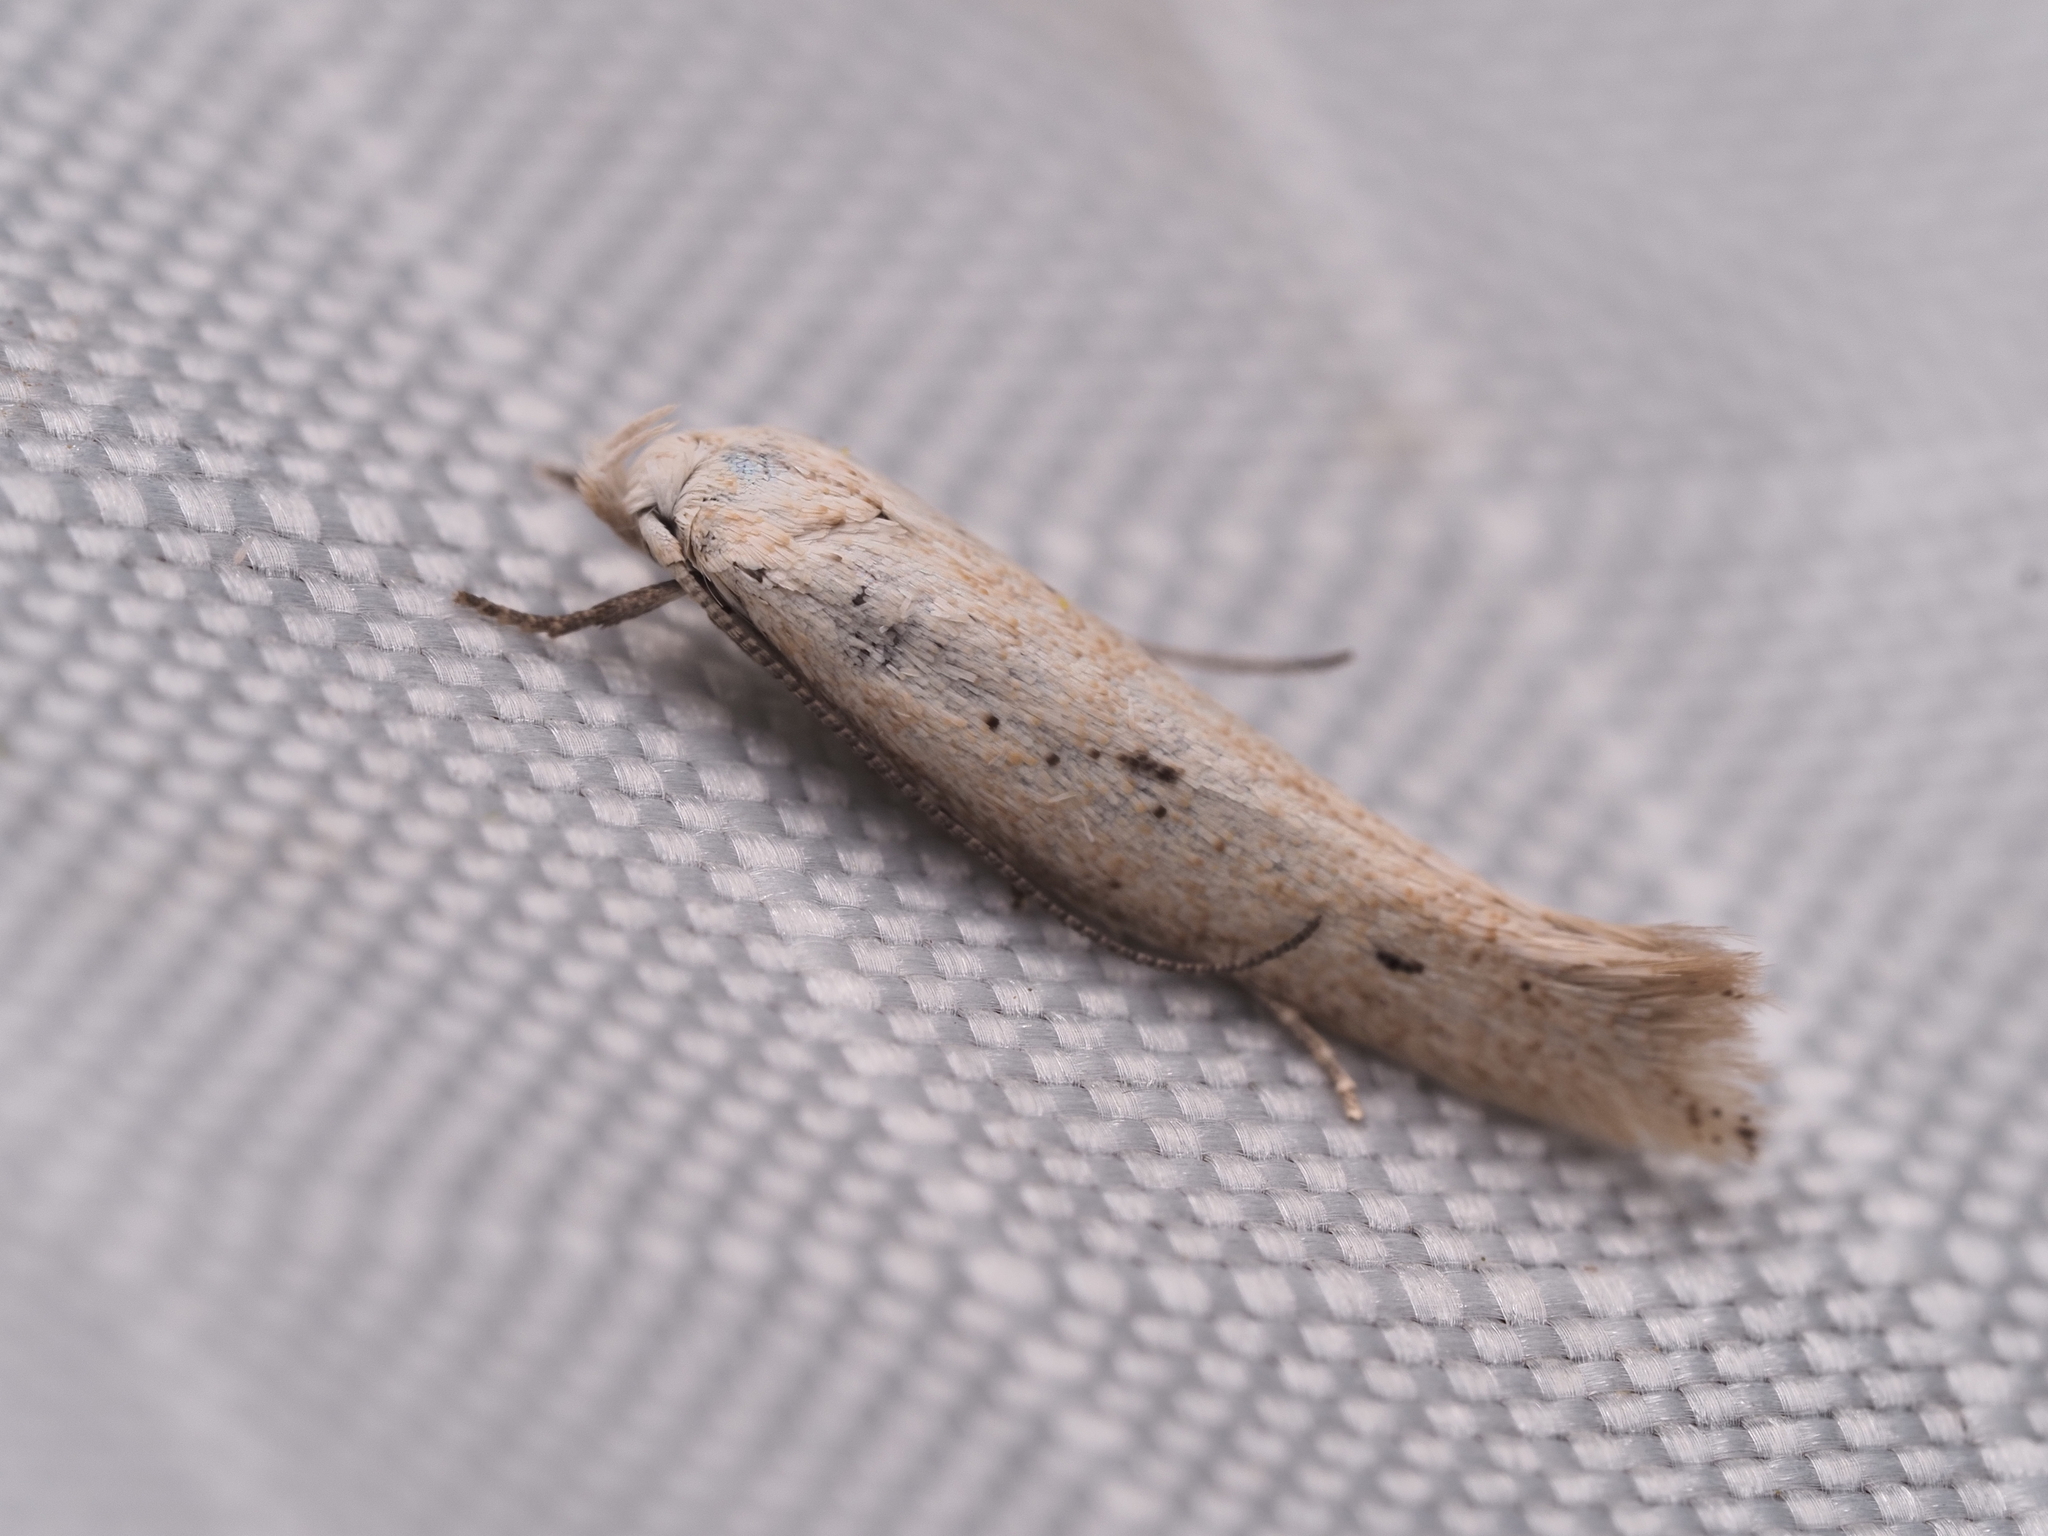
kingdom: Animalia
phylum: Arthropoda
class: Insecta
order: Lepidoptera
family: Elachistidae
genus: Elachista
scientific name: Elachista gerasmia
